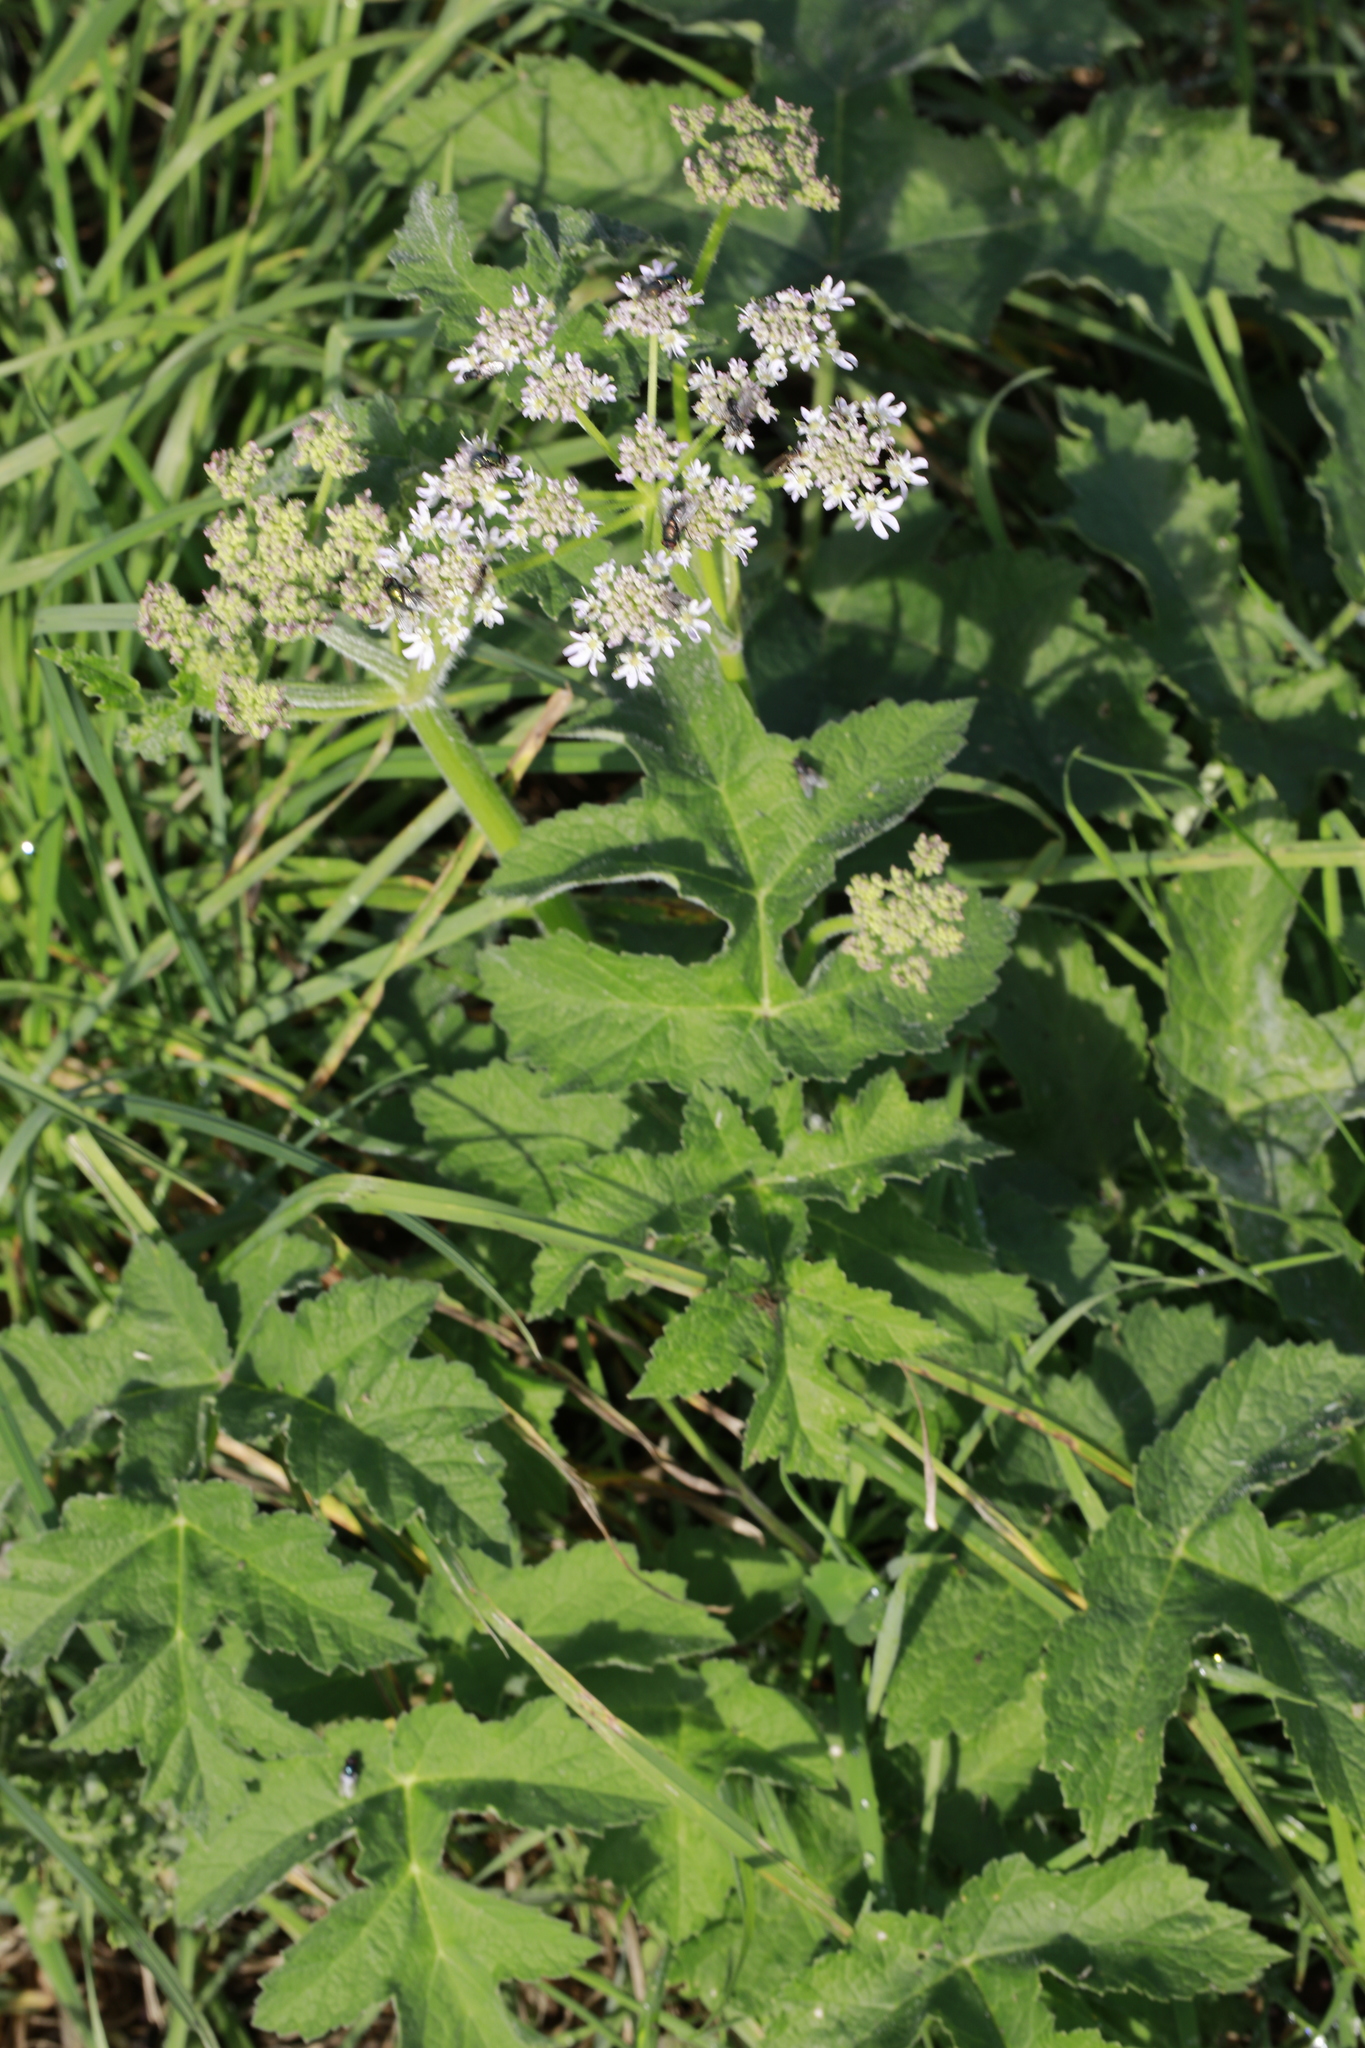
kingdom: Plantae
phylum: Tracheophyta
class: Magnoliopsida
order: Apiales
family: Apiaceae
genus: Heracleum
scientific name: Heracleum sphondylium
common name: Hogweed
